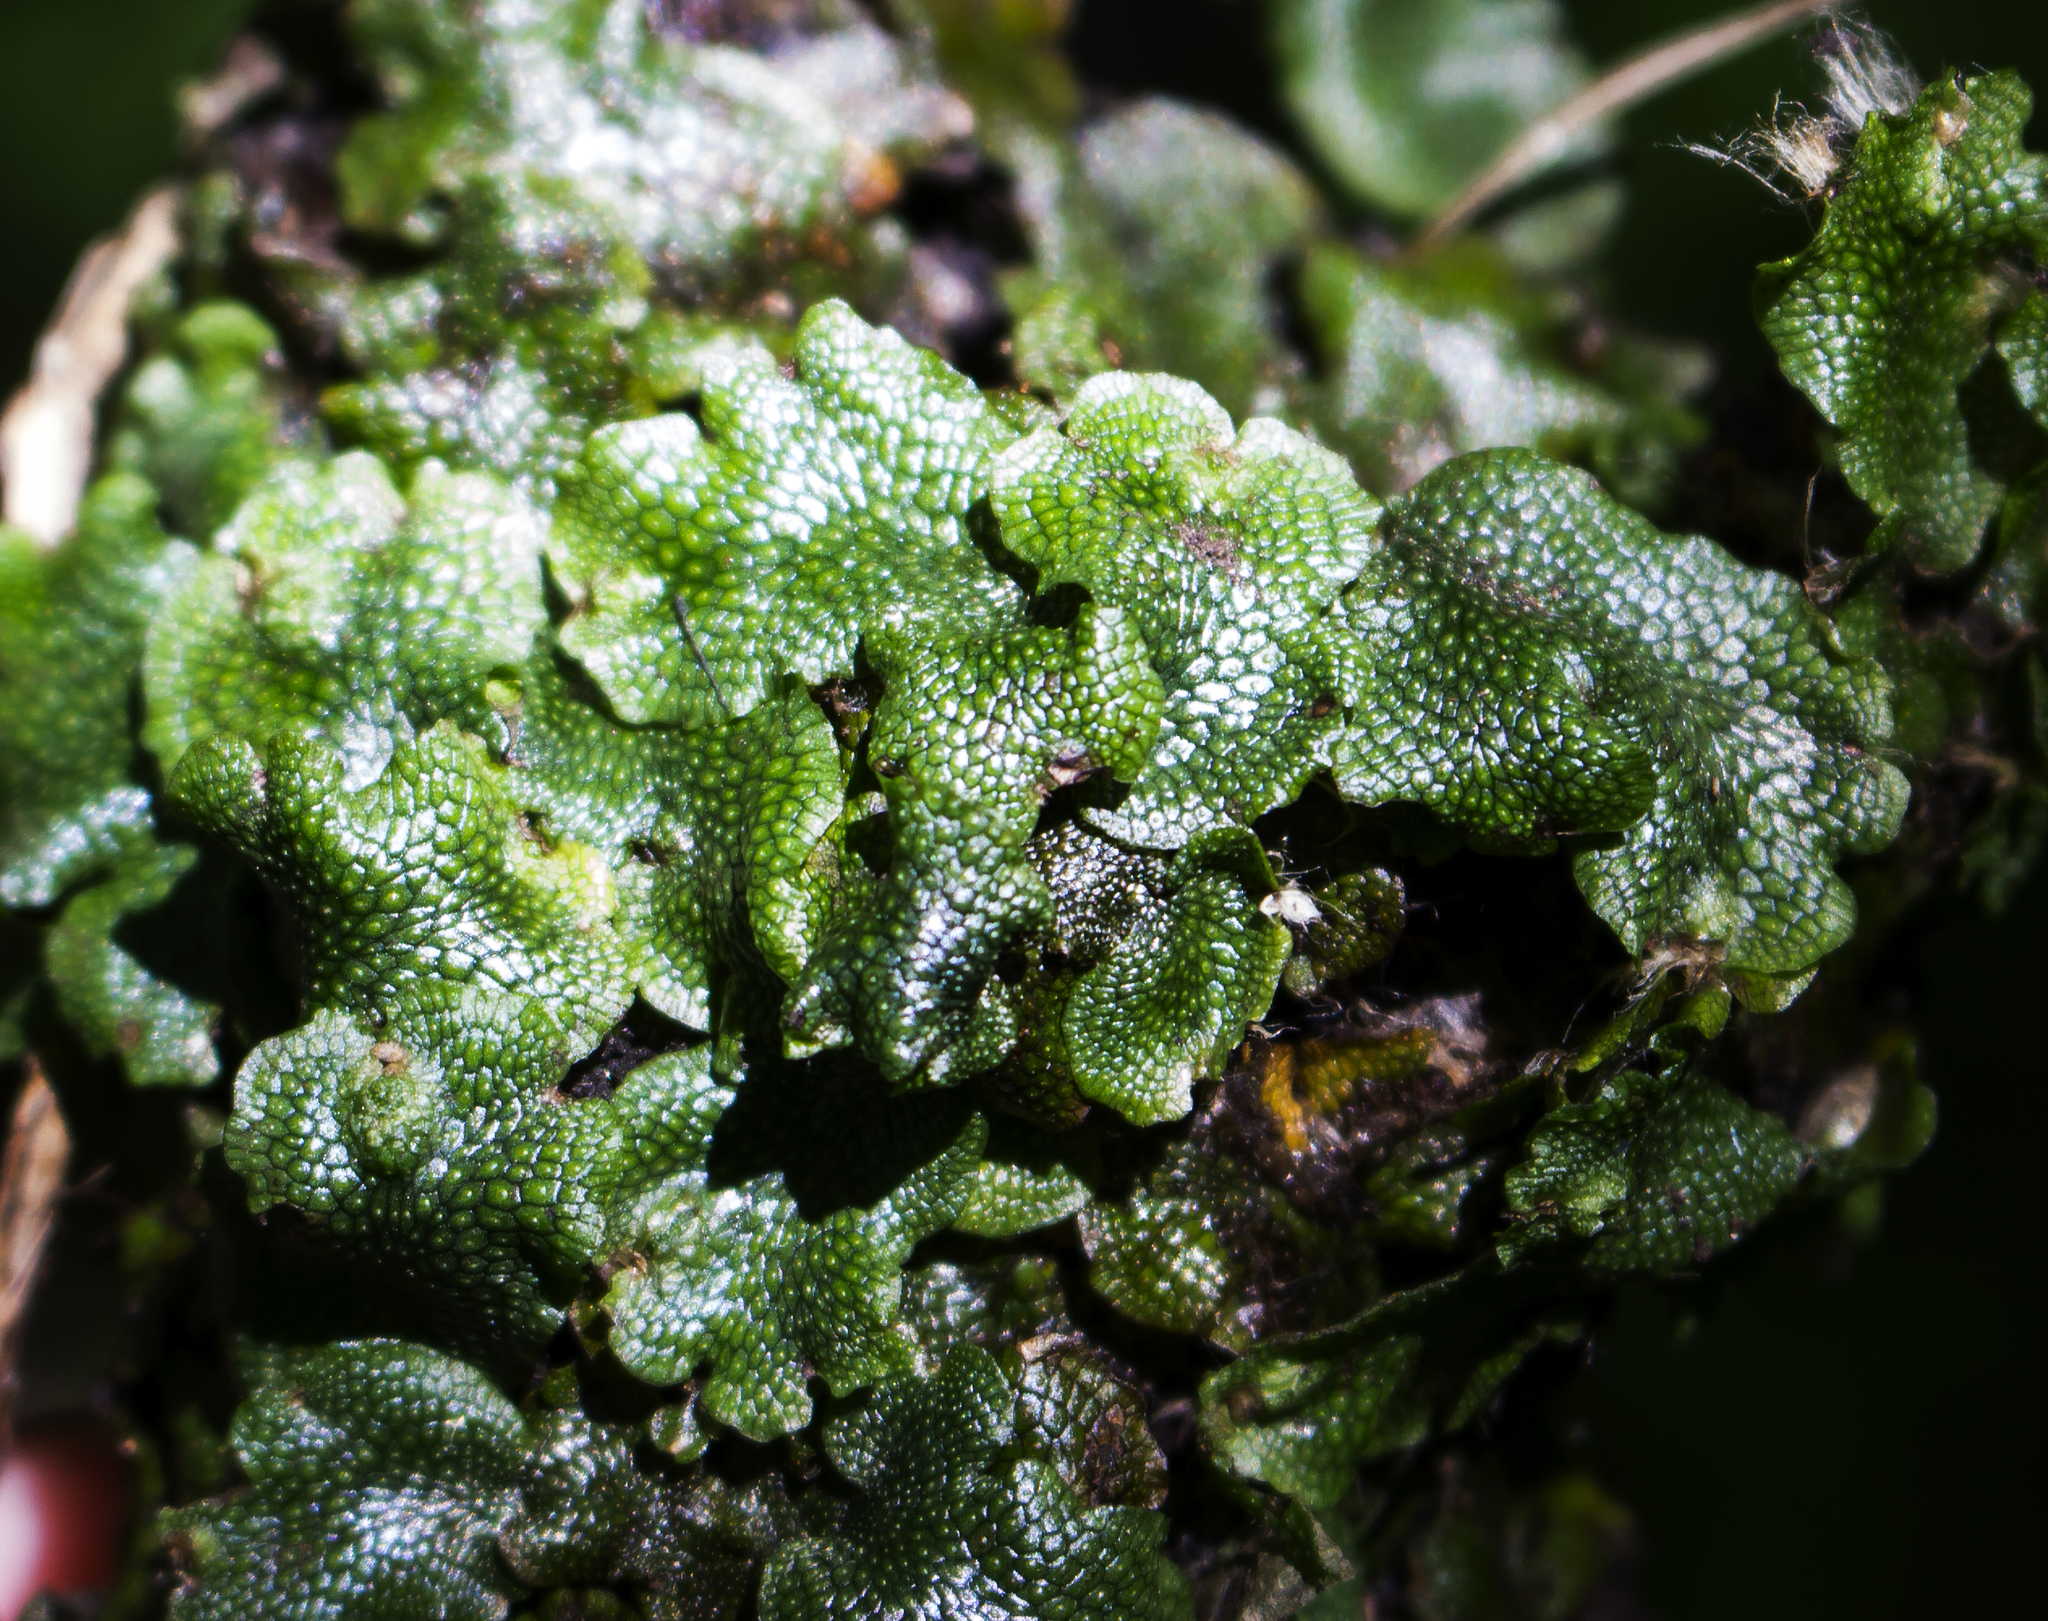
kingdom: Plantae
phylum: Marchantiophyta
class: Marchantiopsida
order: Marchantiales
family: Conocephalaceae
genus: Conocephalum
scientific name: Conocephalum salebrosum
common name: Cat-tongue liverwort
